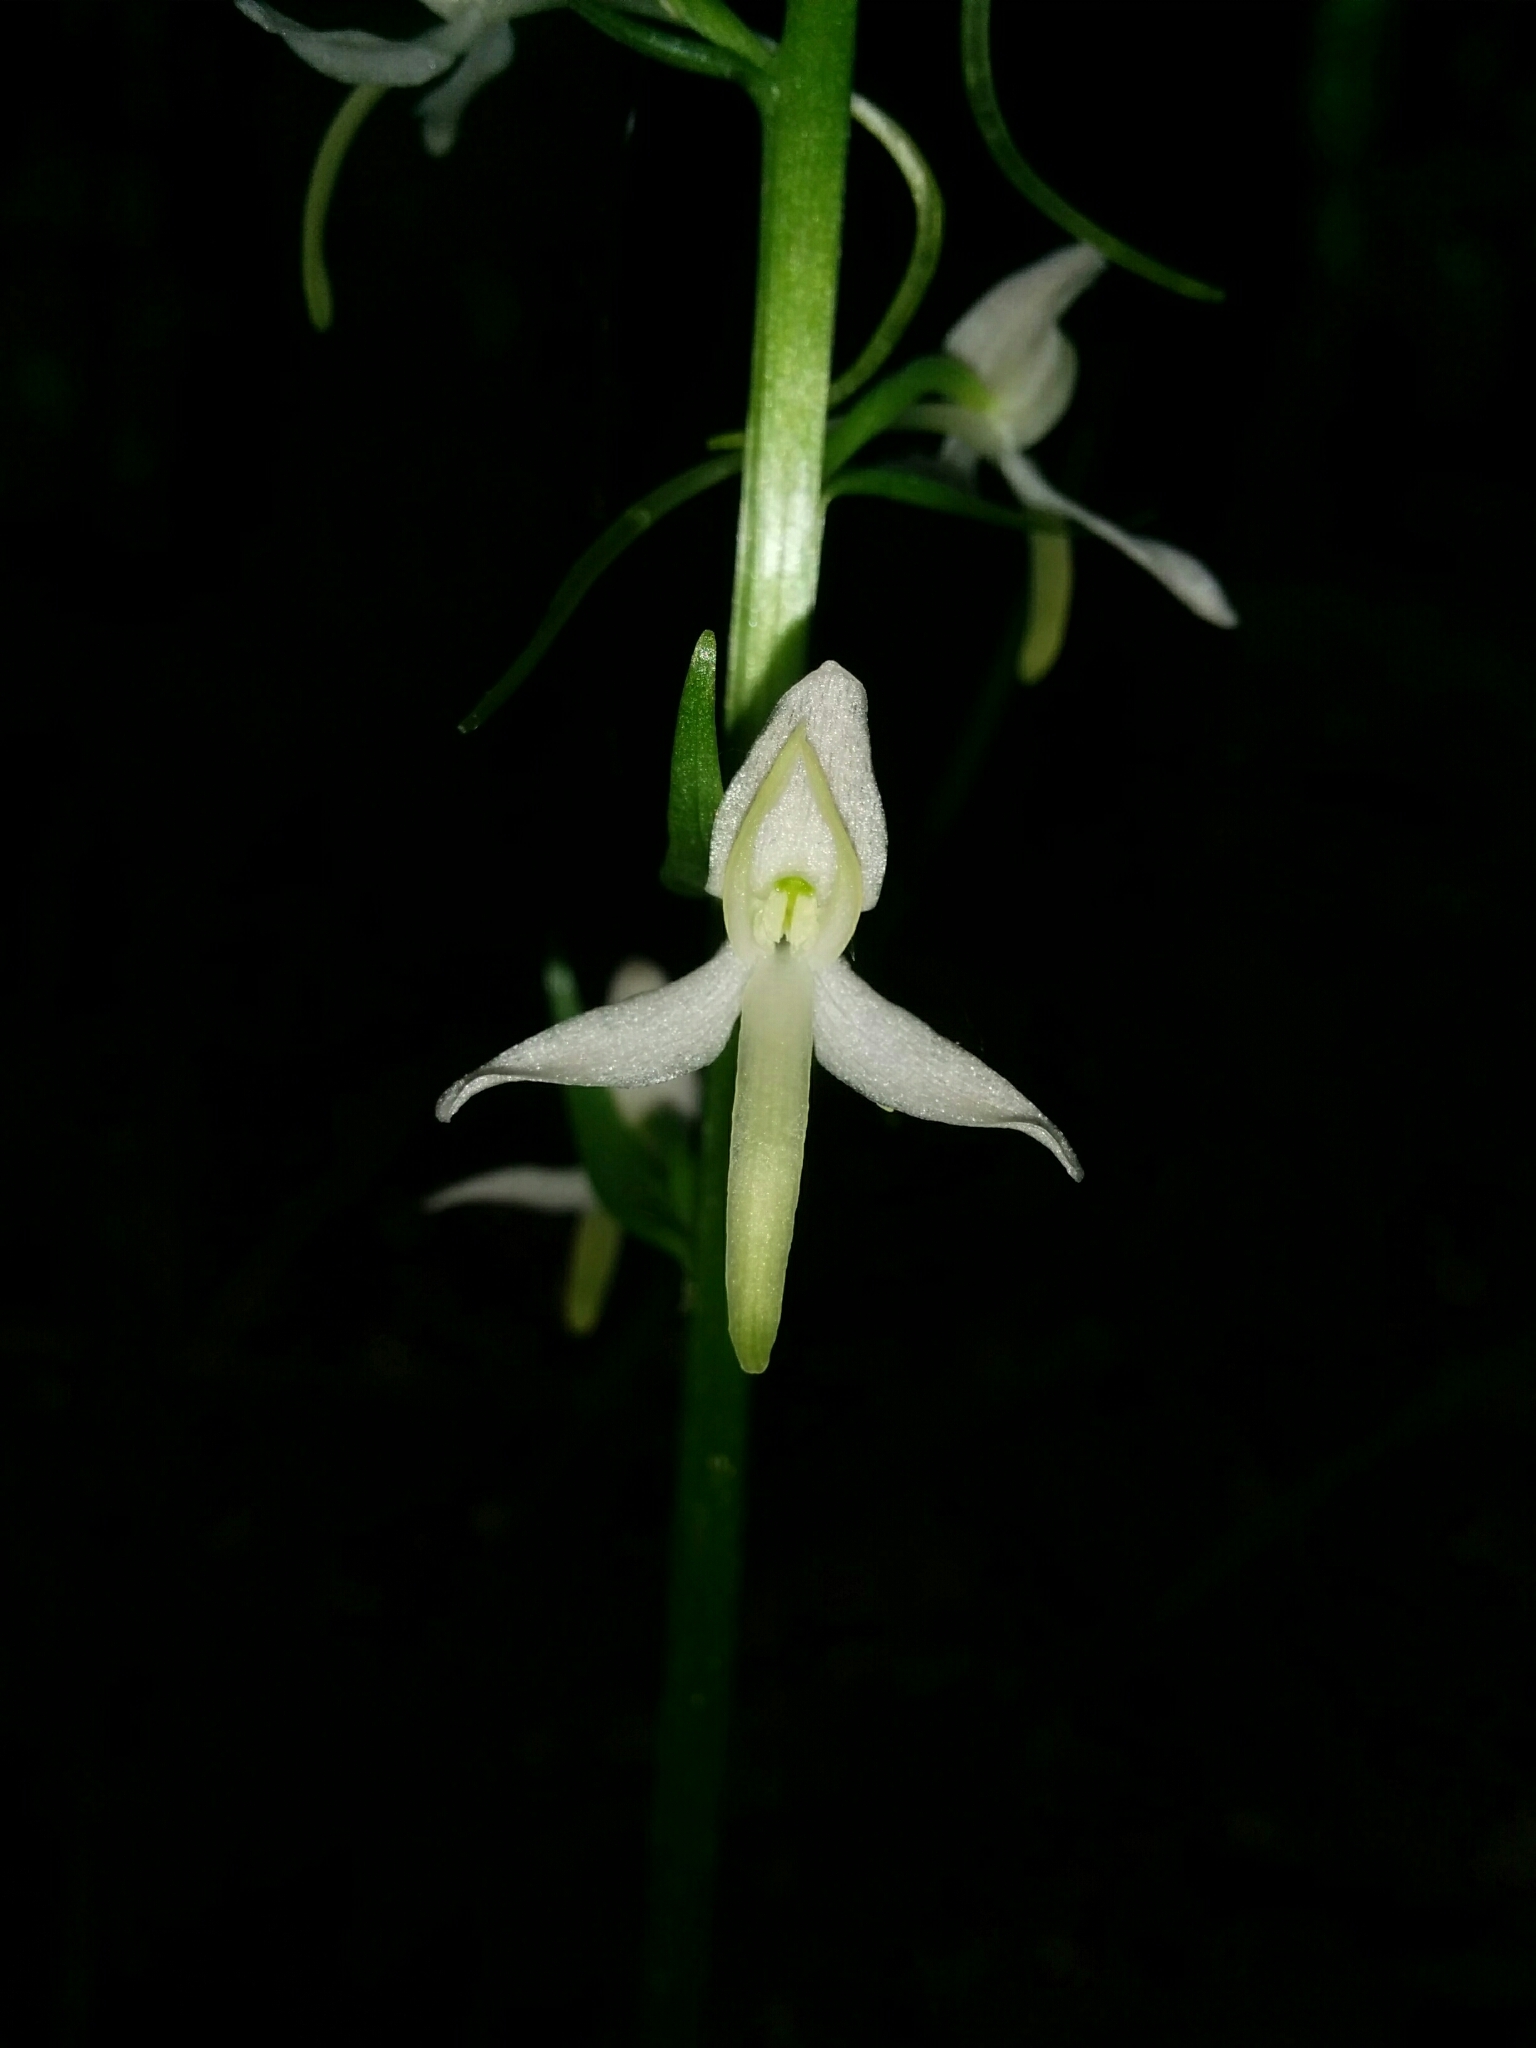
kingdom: Plantae
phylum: Tracheophyta
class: Liliopsida
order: Asparagales
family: Orchidaceae
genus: Platanthera
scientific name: Platanthera bifolia
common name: Lesser butterfly-orchid
